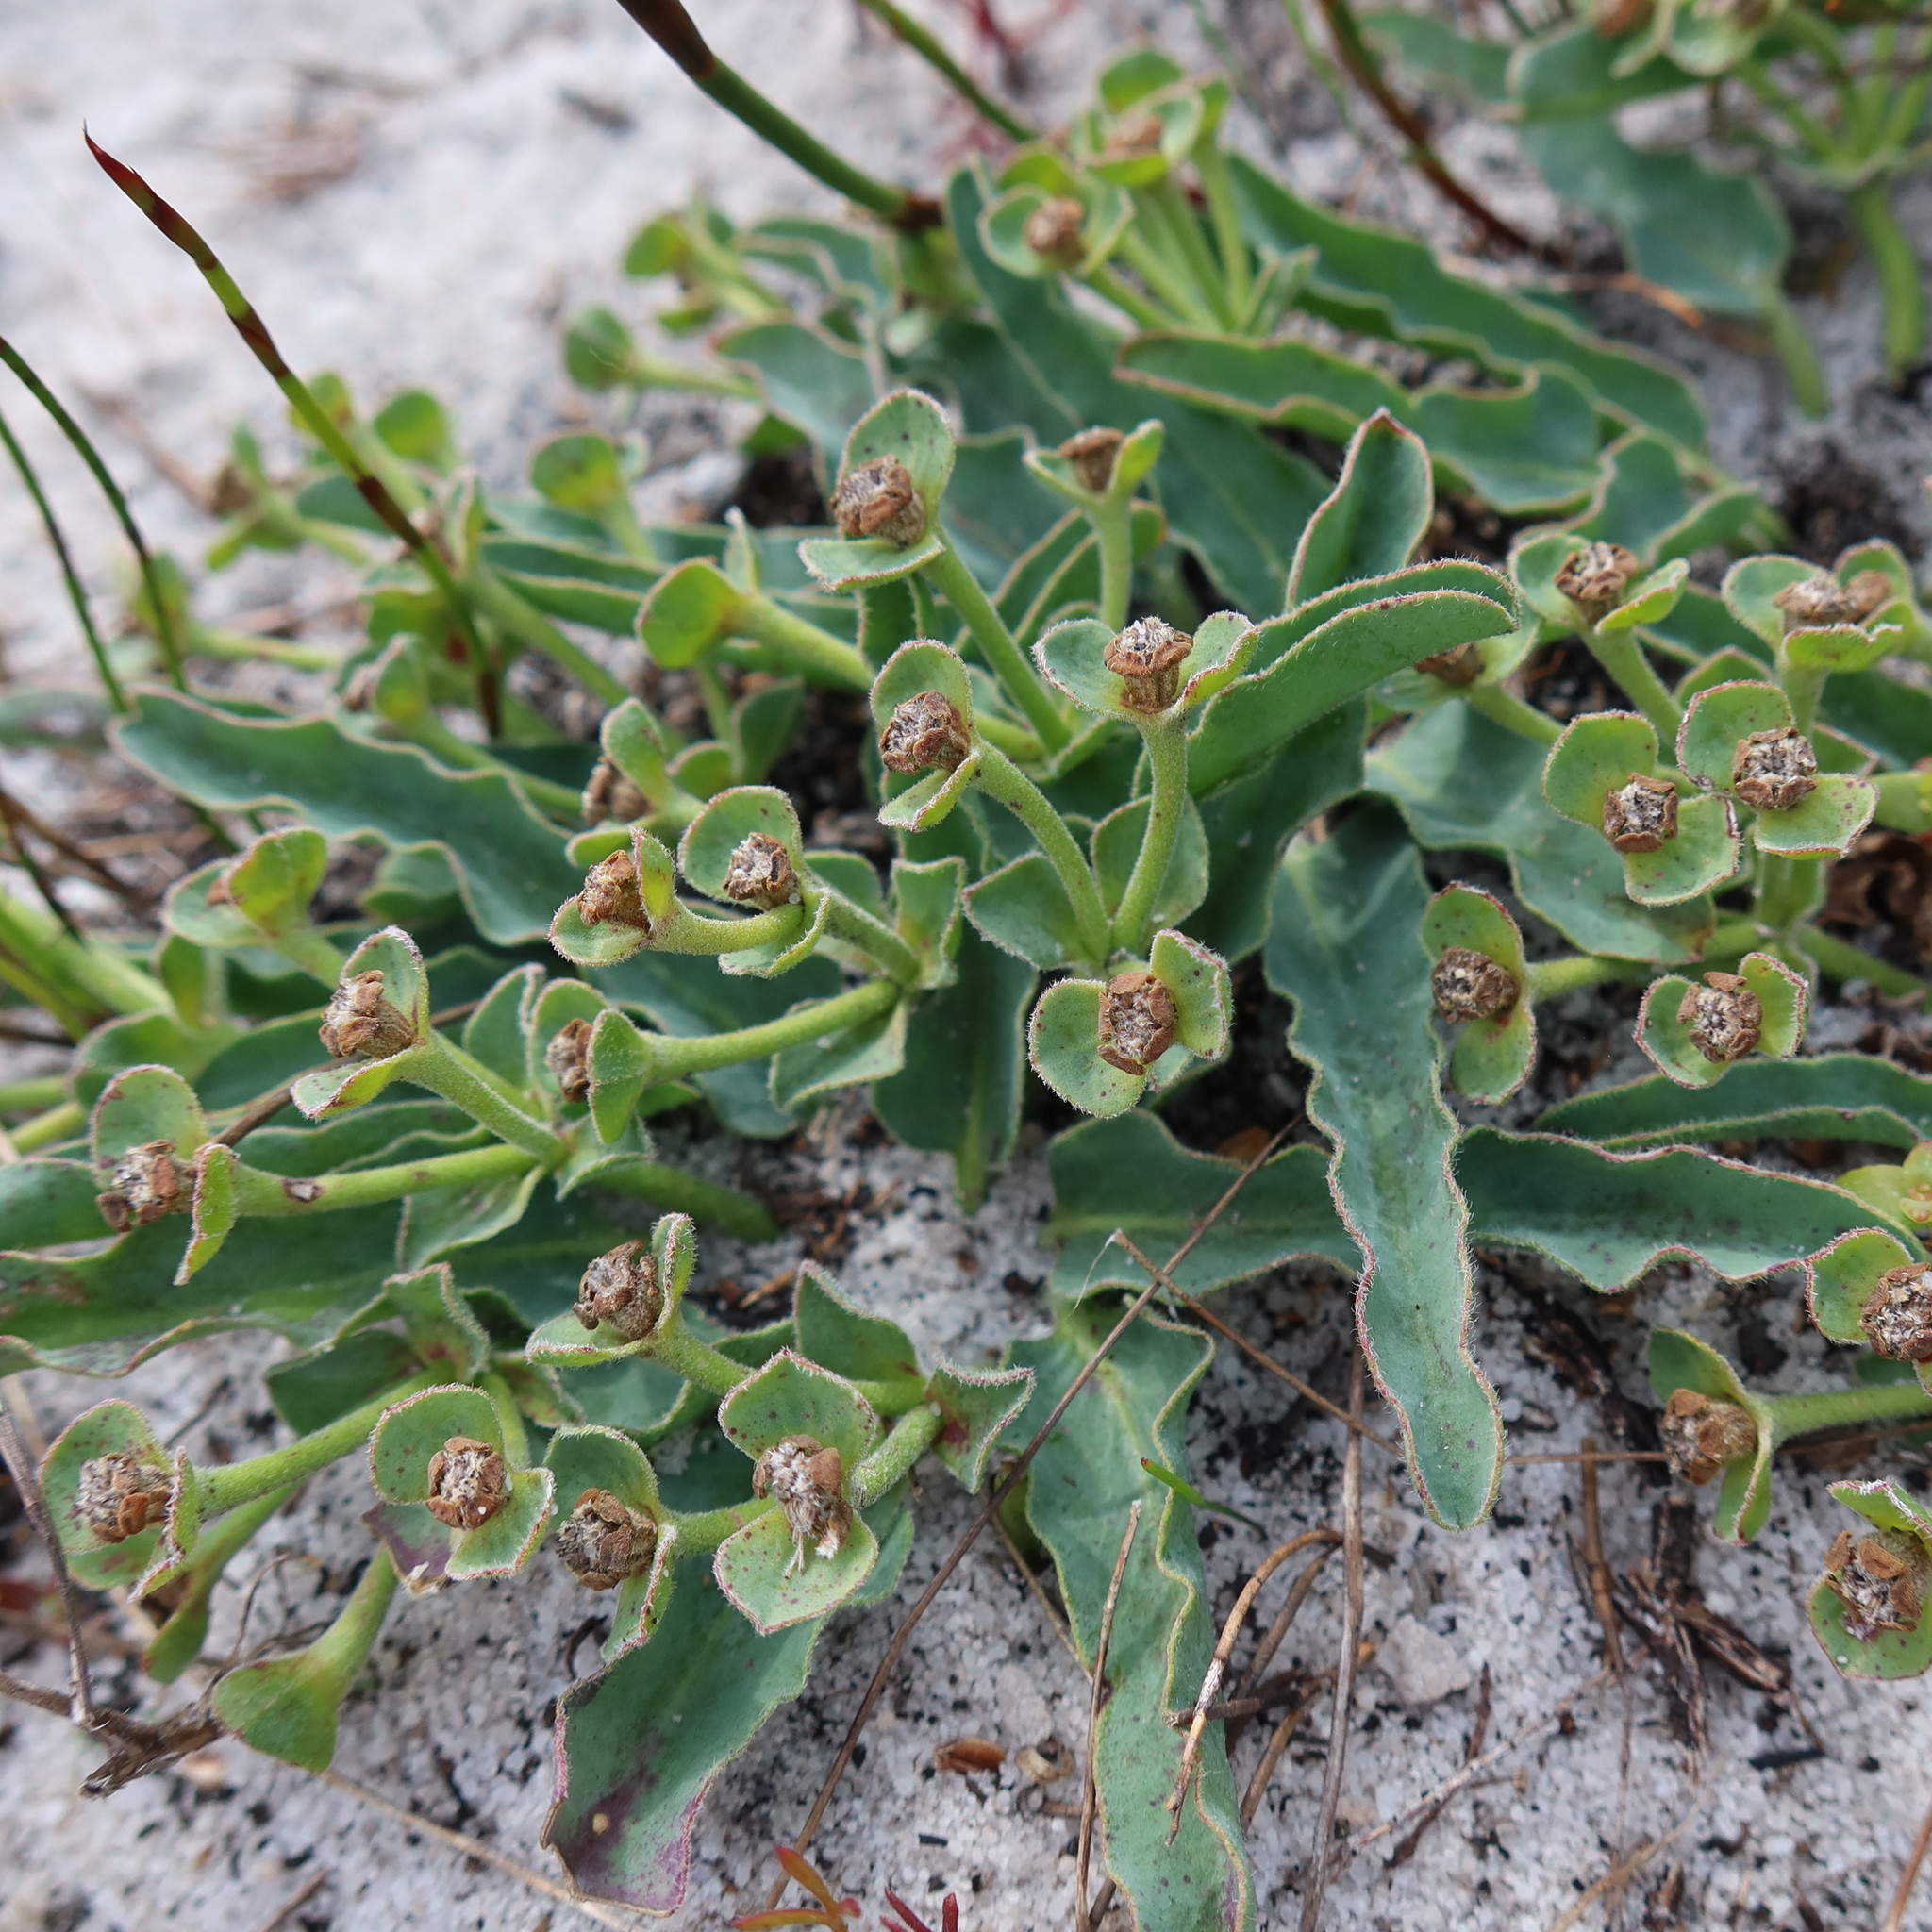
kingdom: Plantae
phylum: Tracheophyta
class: Magnoliopsida
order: Malpighiales
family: Euphorbiaceae
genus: Euphorbia
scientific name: Euphorbia tuberosa
